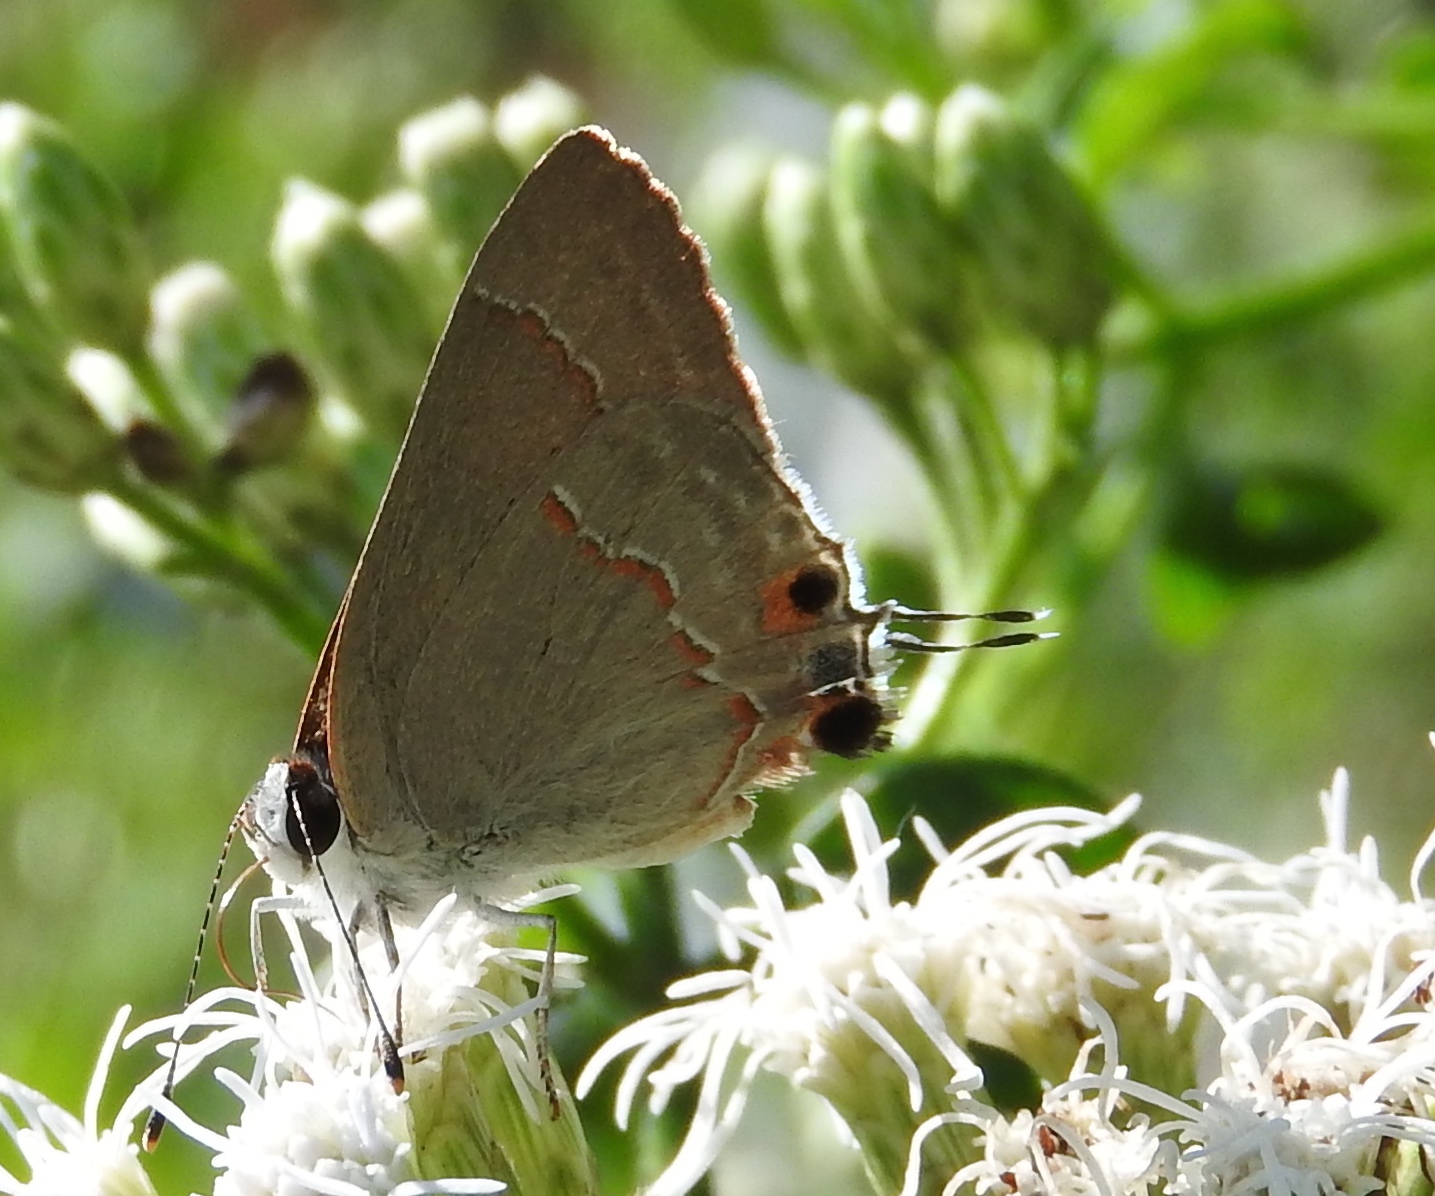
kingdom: Animalia
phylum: Arthropoda
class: Insecta
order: Lepidoptera
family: Lycaenidae
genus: Thecla
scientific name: Thecla bebrycia
